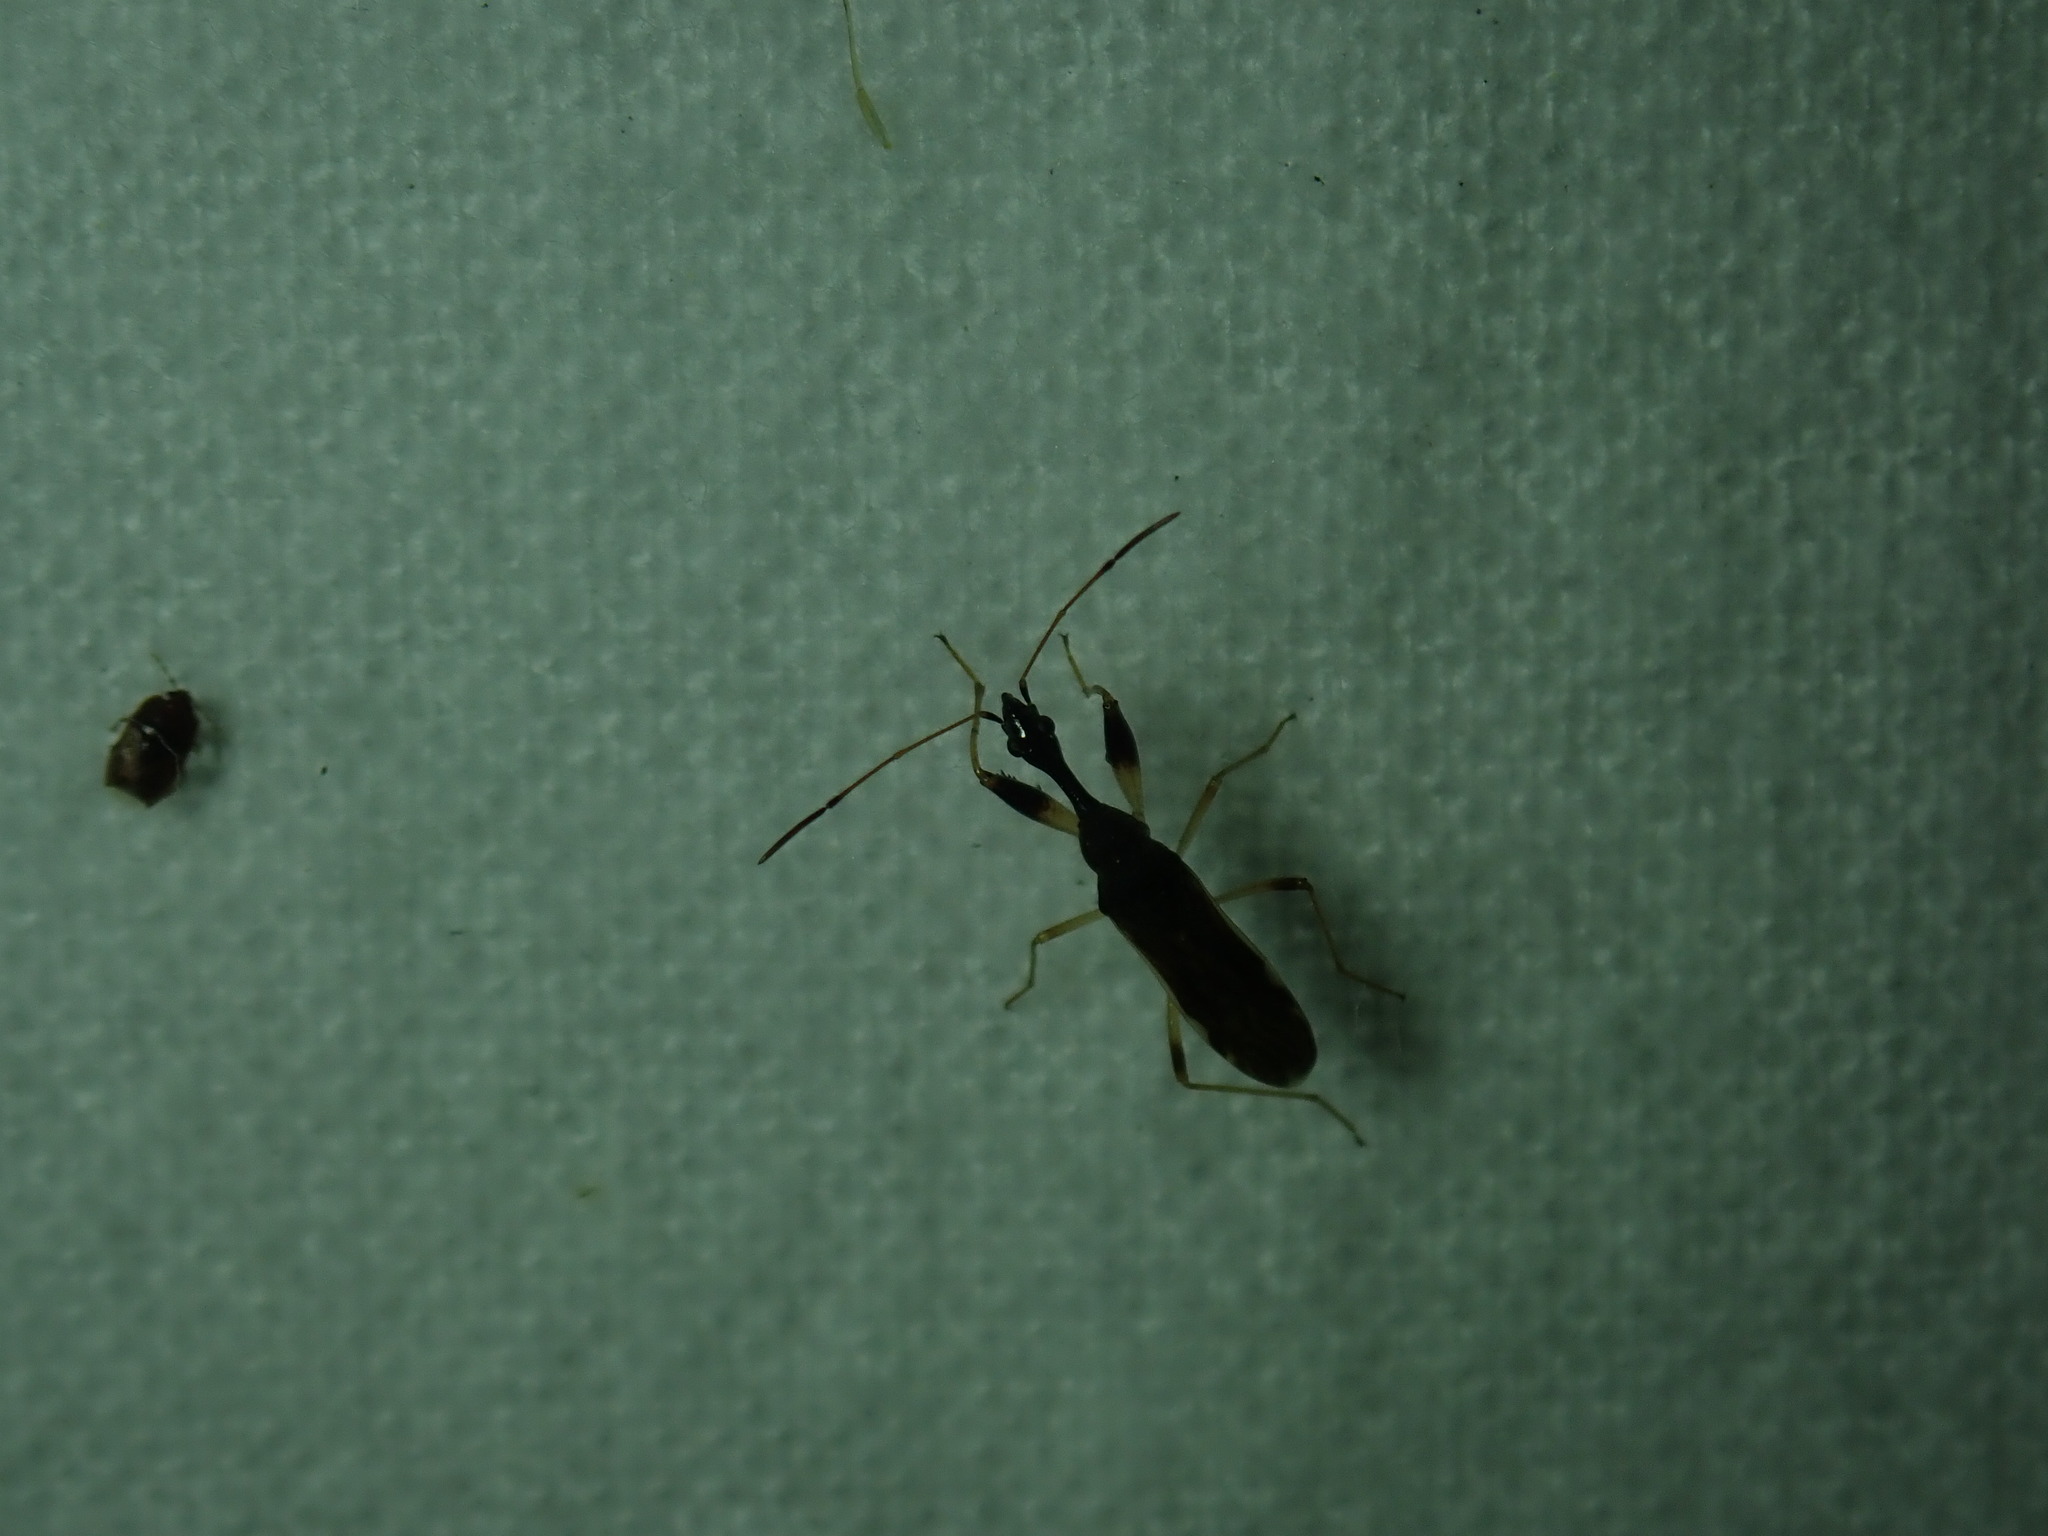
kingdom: Animalia
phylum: Arthropoda
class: Insecta
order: Hemiptera
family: Rhyparochromidae
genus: Myodocha
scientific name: Myodocha serripes
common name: Long-necked seed bug
